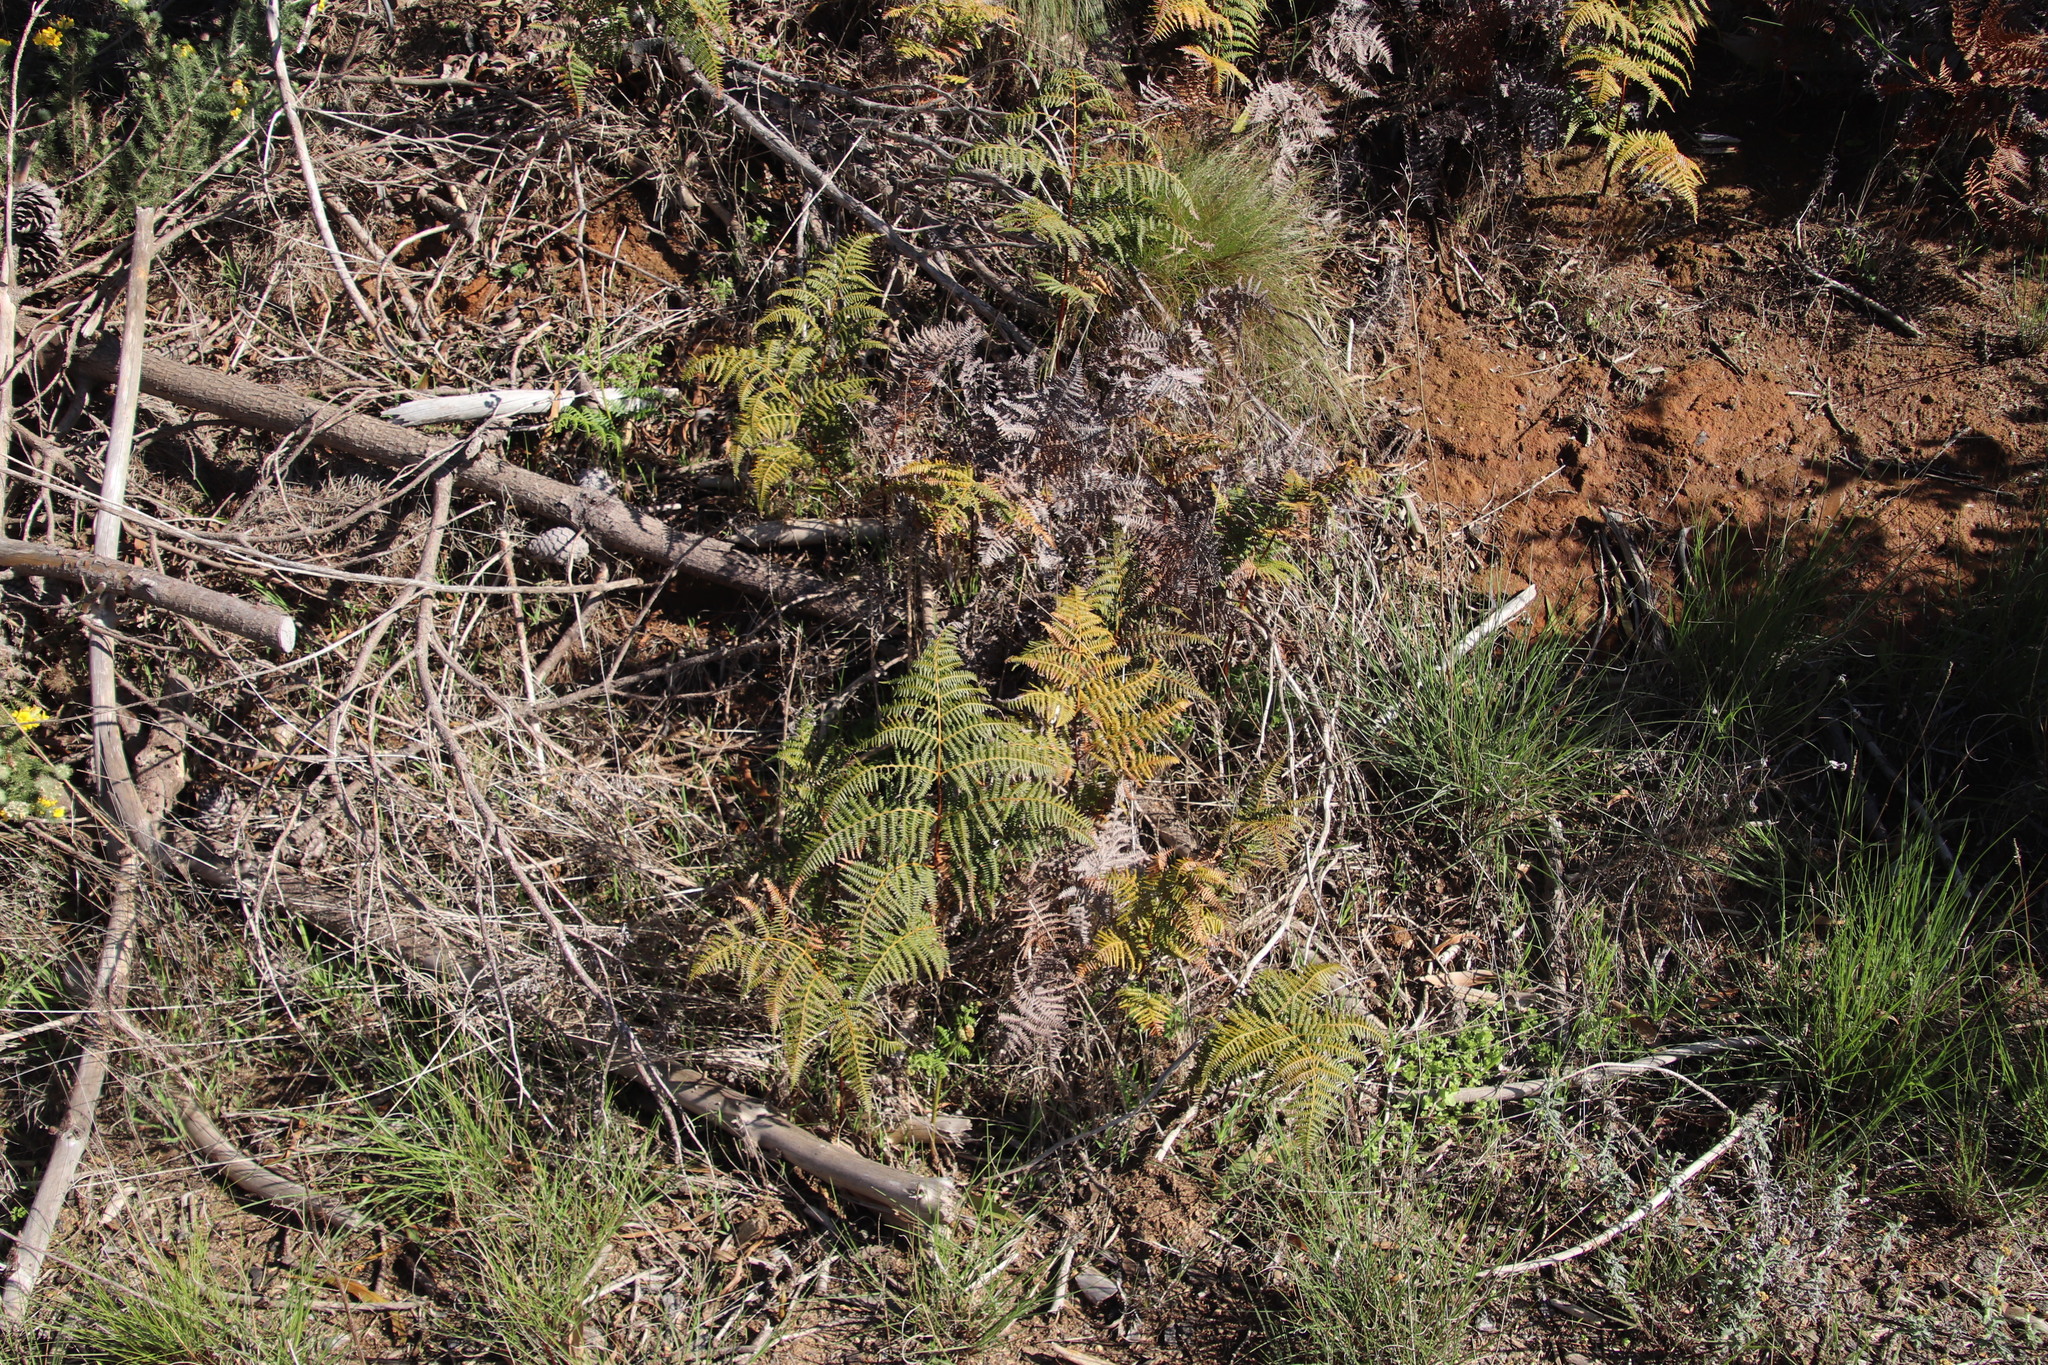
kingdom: Plantae
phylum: Tracheophyta
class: Polypodiopsida
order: Polypodiales
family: Dennstaedtiaceae
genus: Pteridium
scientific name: Pteridium aquilinum
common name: Bracken
